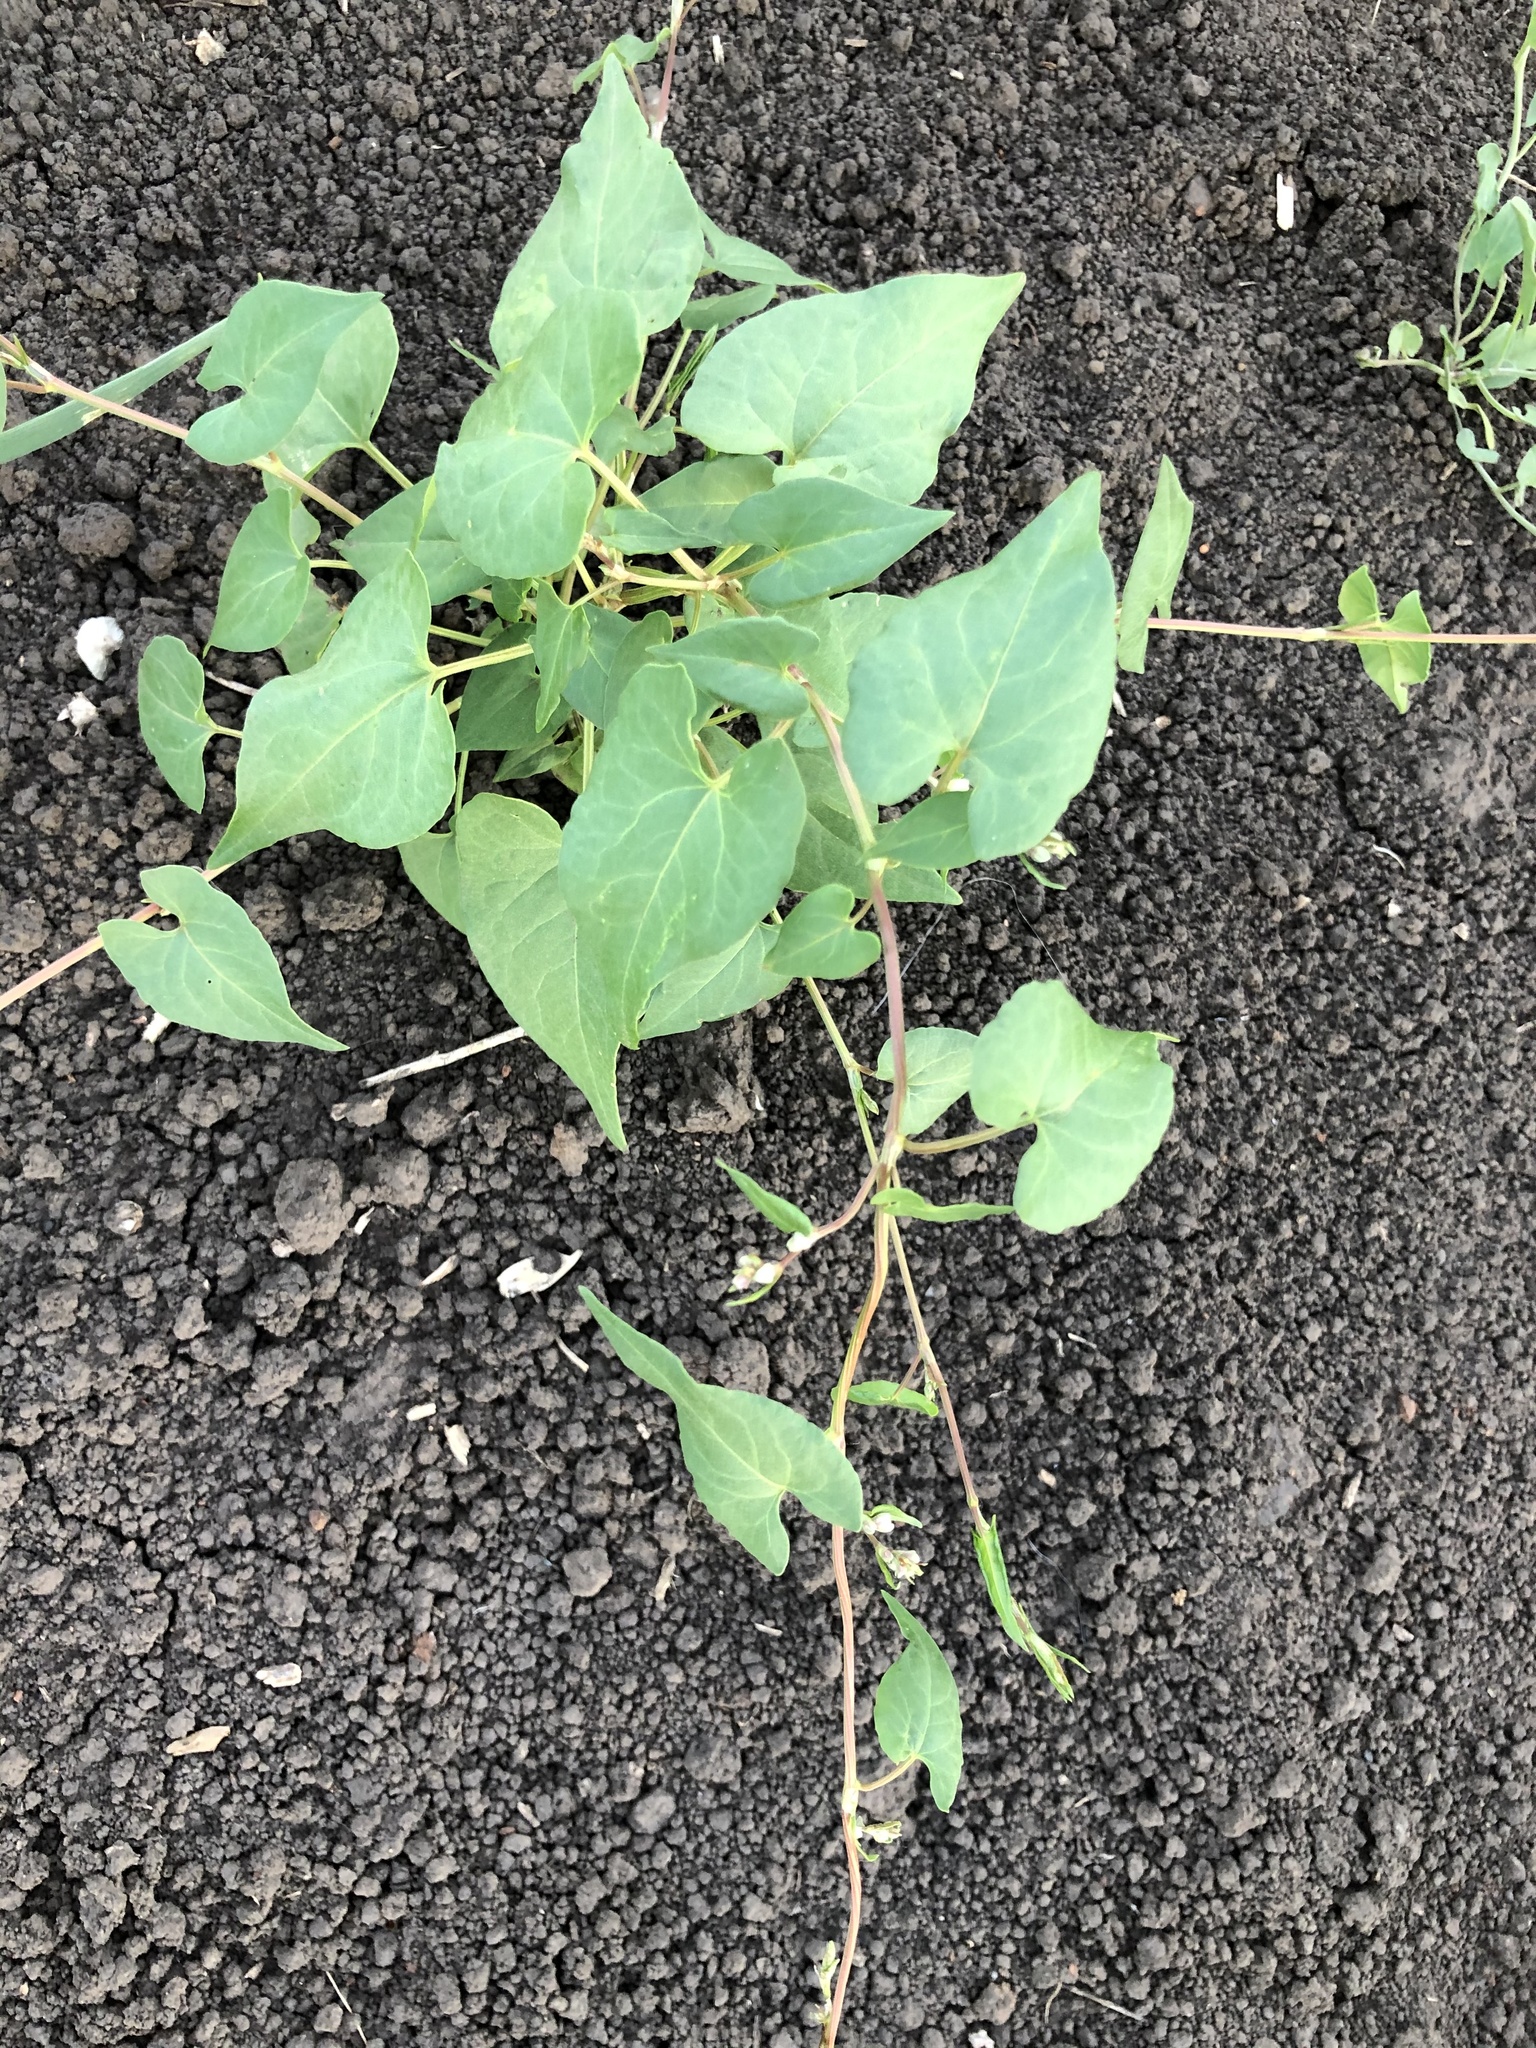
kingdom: Plantae
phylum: Tracheophyta
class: Magnoliopsida
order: Caryophyllales
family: Polygonaceae
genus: Fallopia
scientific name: Fallopia convolvulus
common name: Black bindweed
